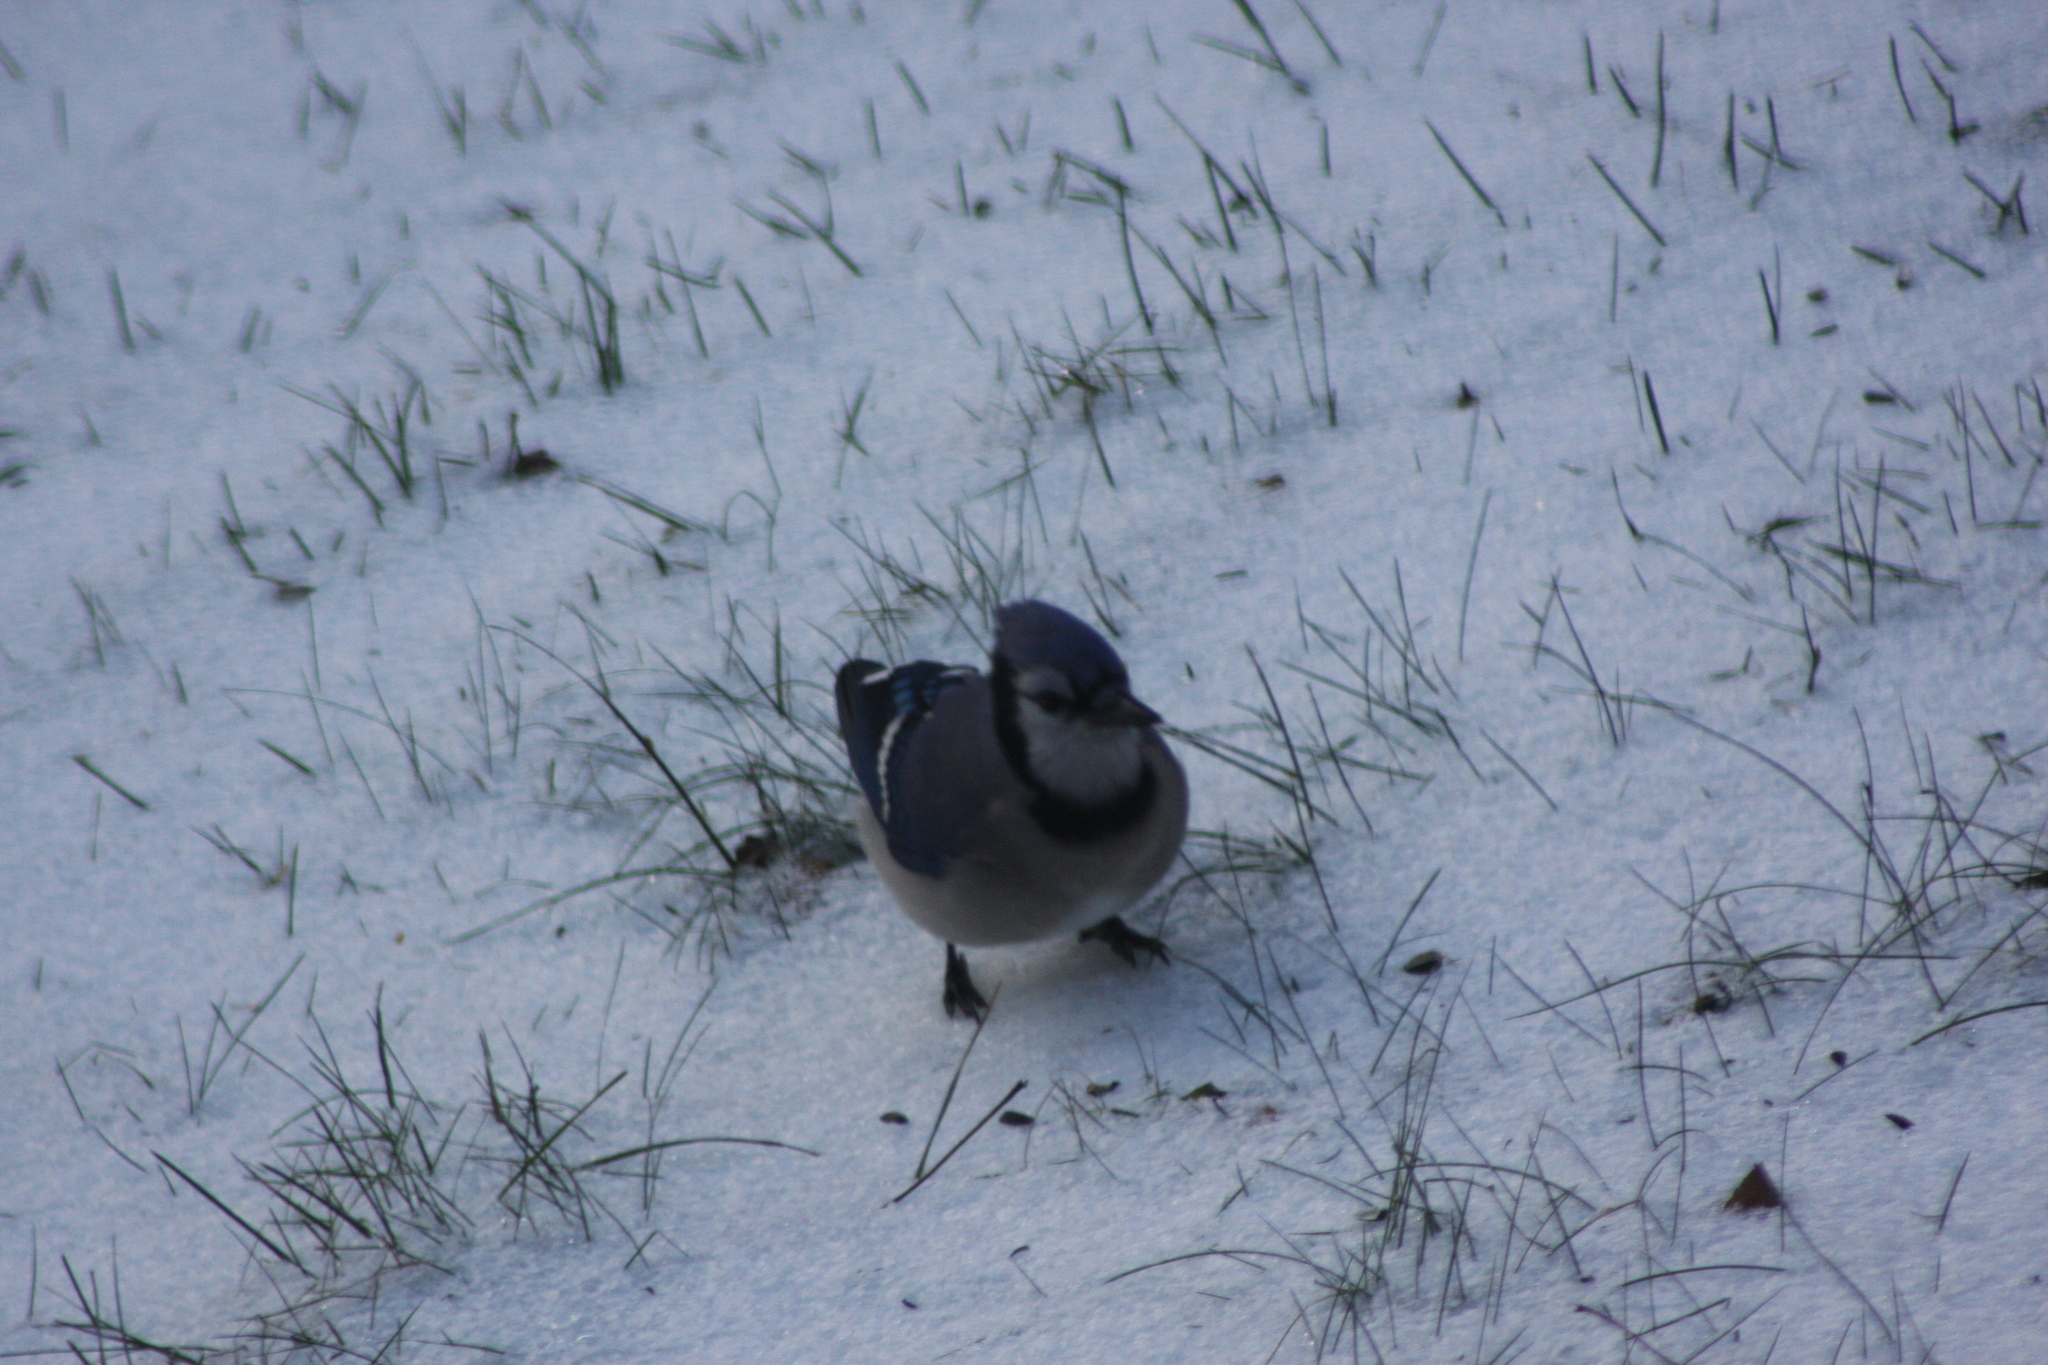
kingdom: Animalia
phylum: Chordata
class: Aves
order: Passeriformes
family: Corvidae
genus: Cyanocitta
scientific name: Cyanocitta cristata
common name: Blue jay
